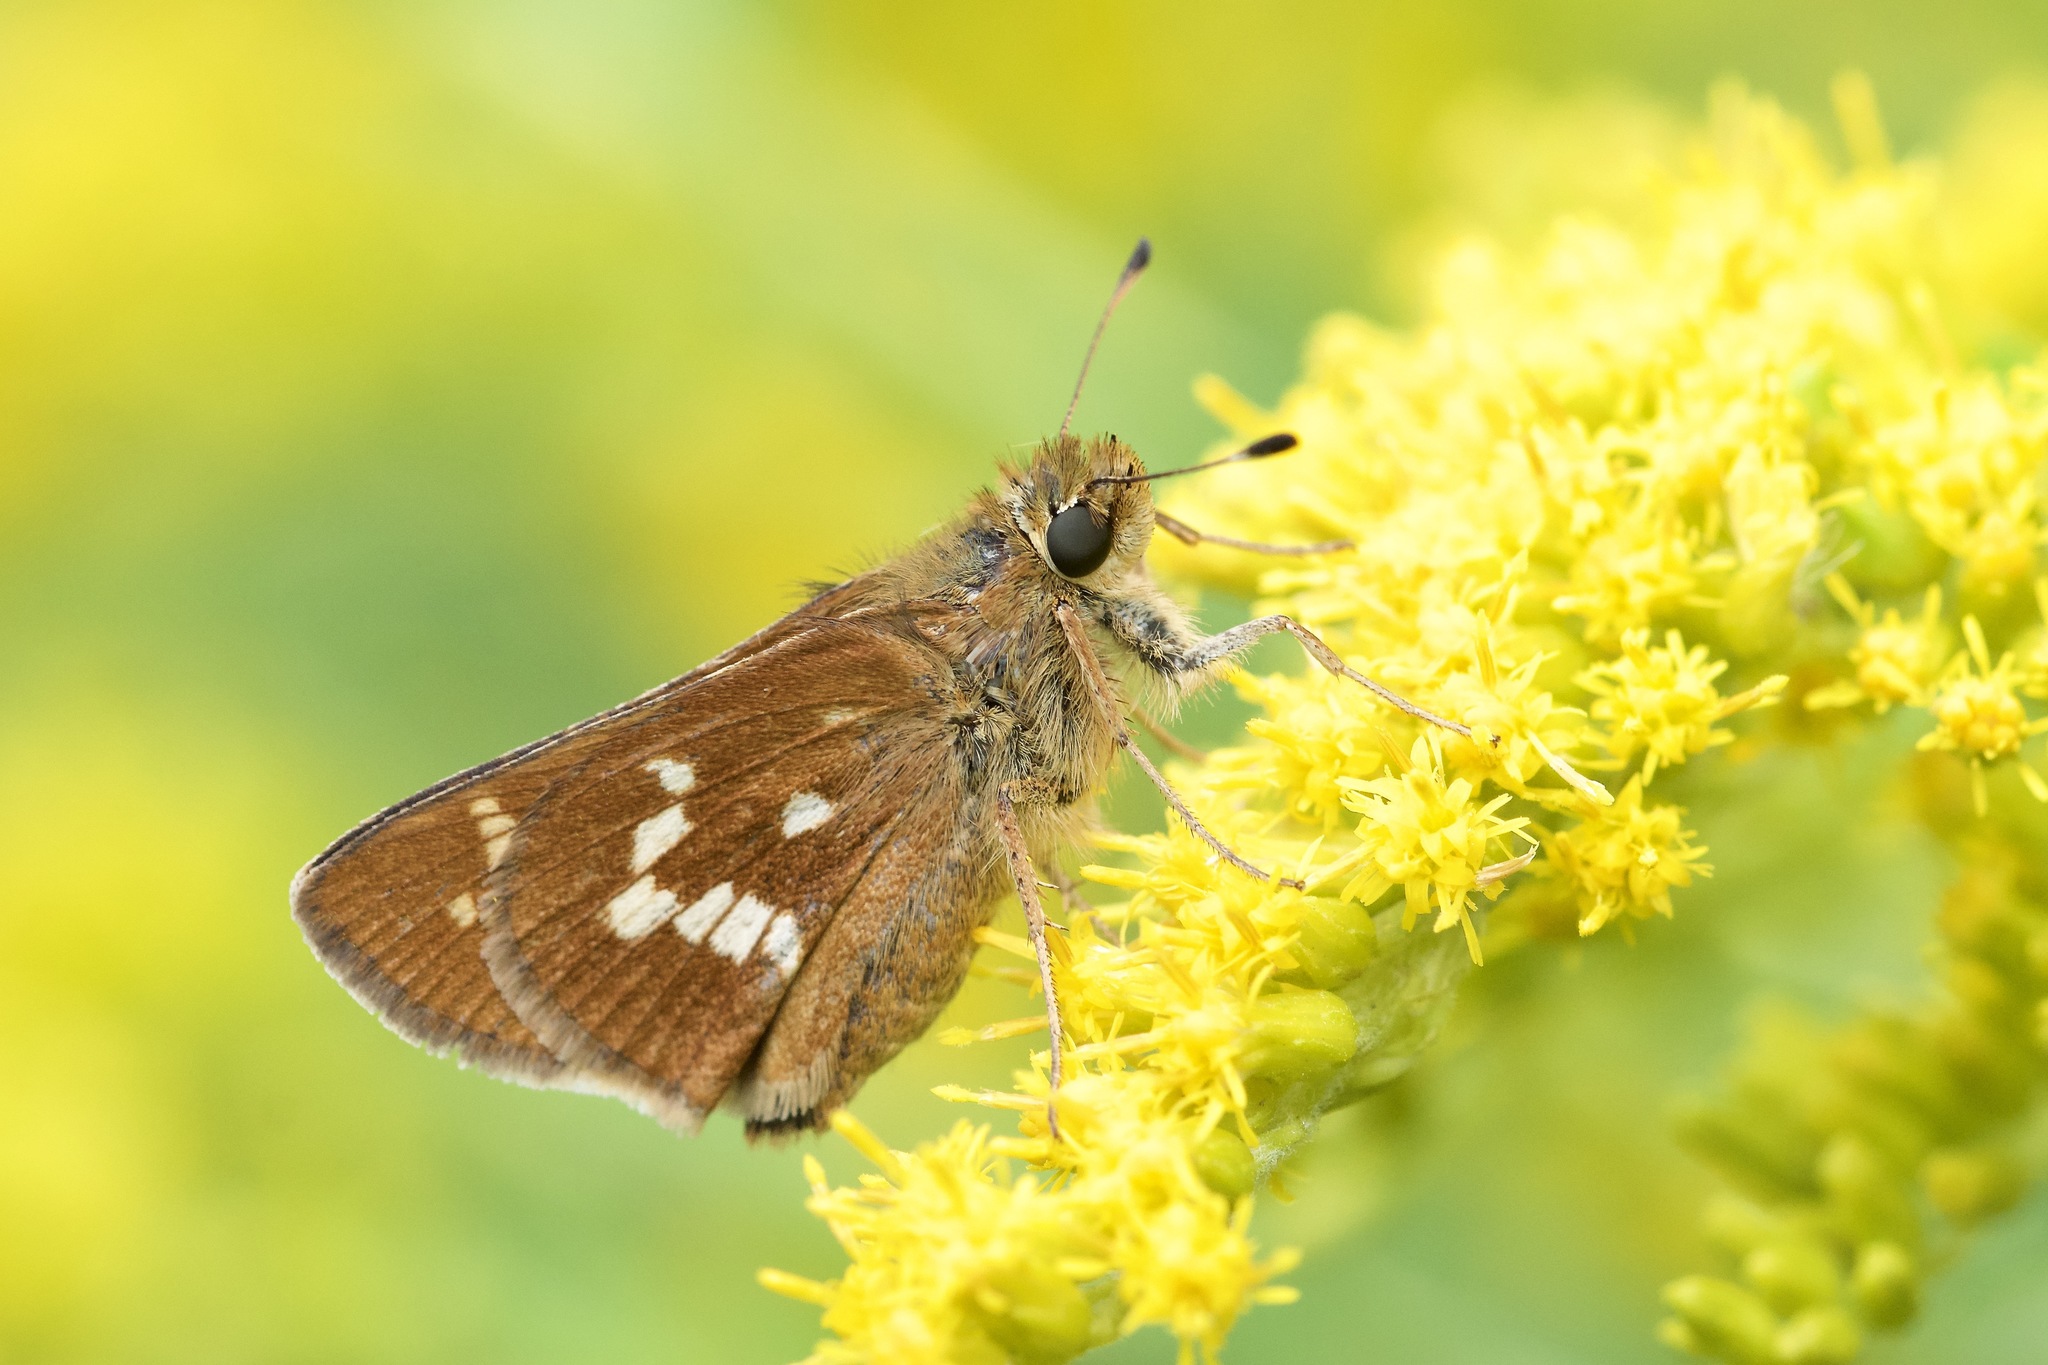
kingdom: Animalia
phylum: Arthropoda
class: Insecta
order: Lepidoptera
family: Hesperiidae
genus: Hesperia
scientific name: Hesperia leonardus
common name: Leonard's skipper
